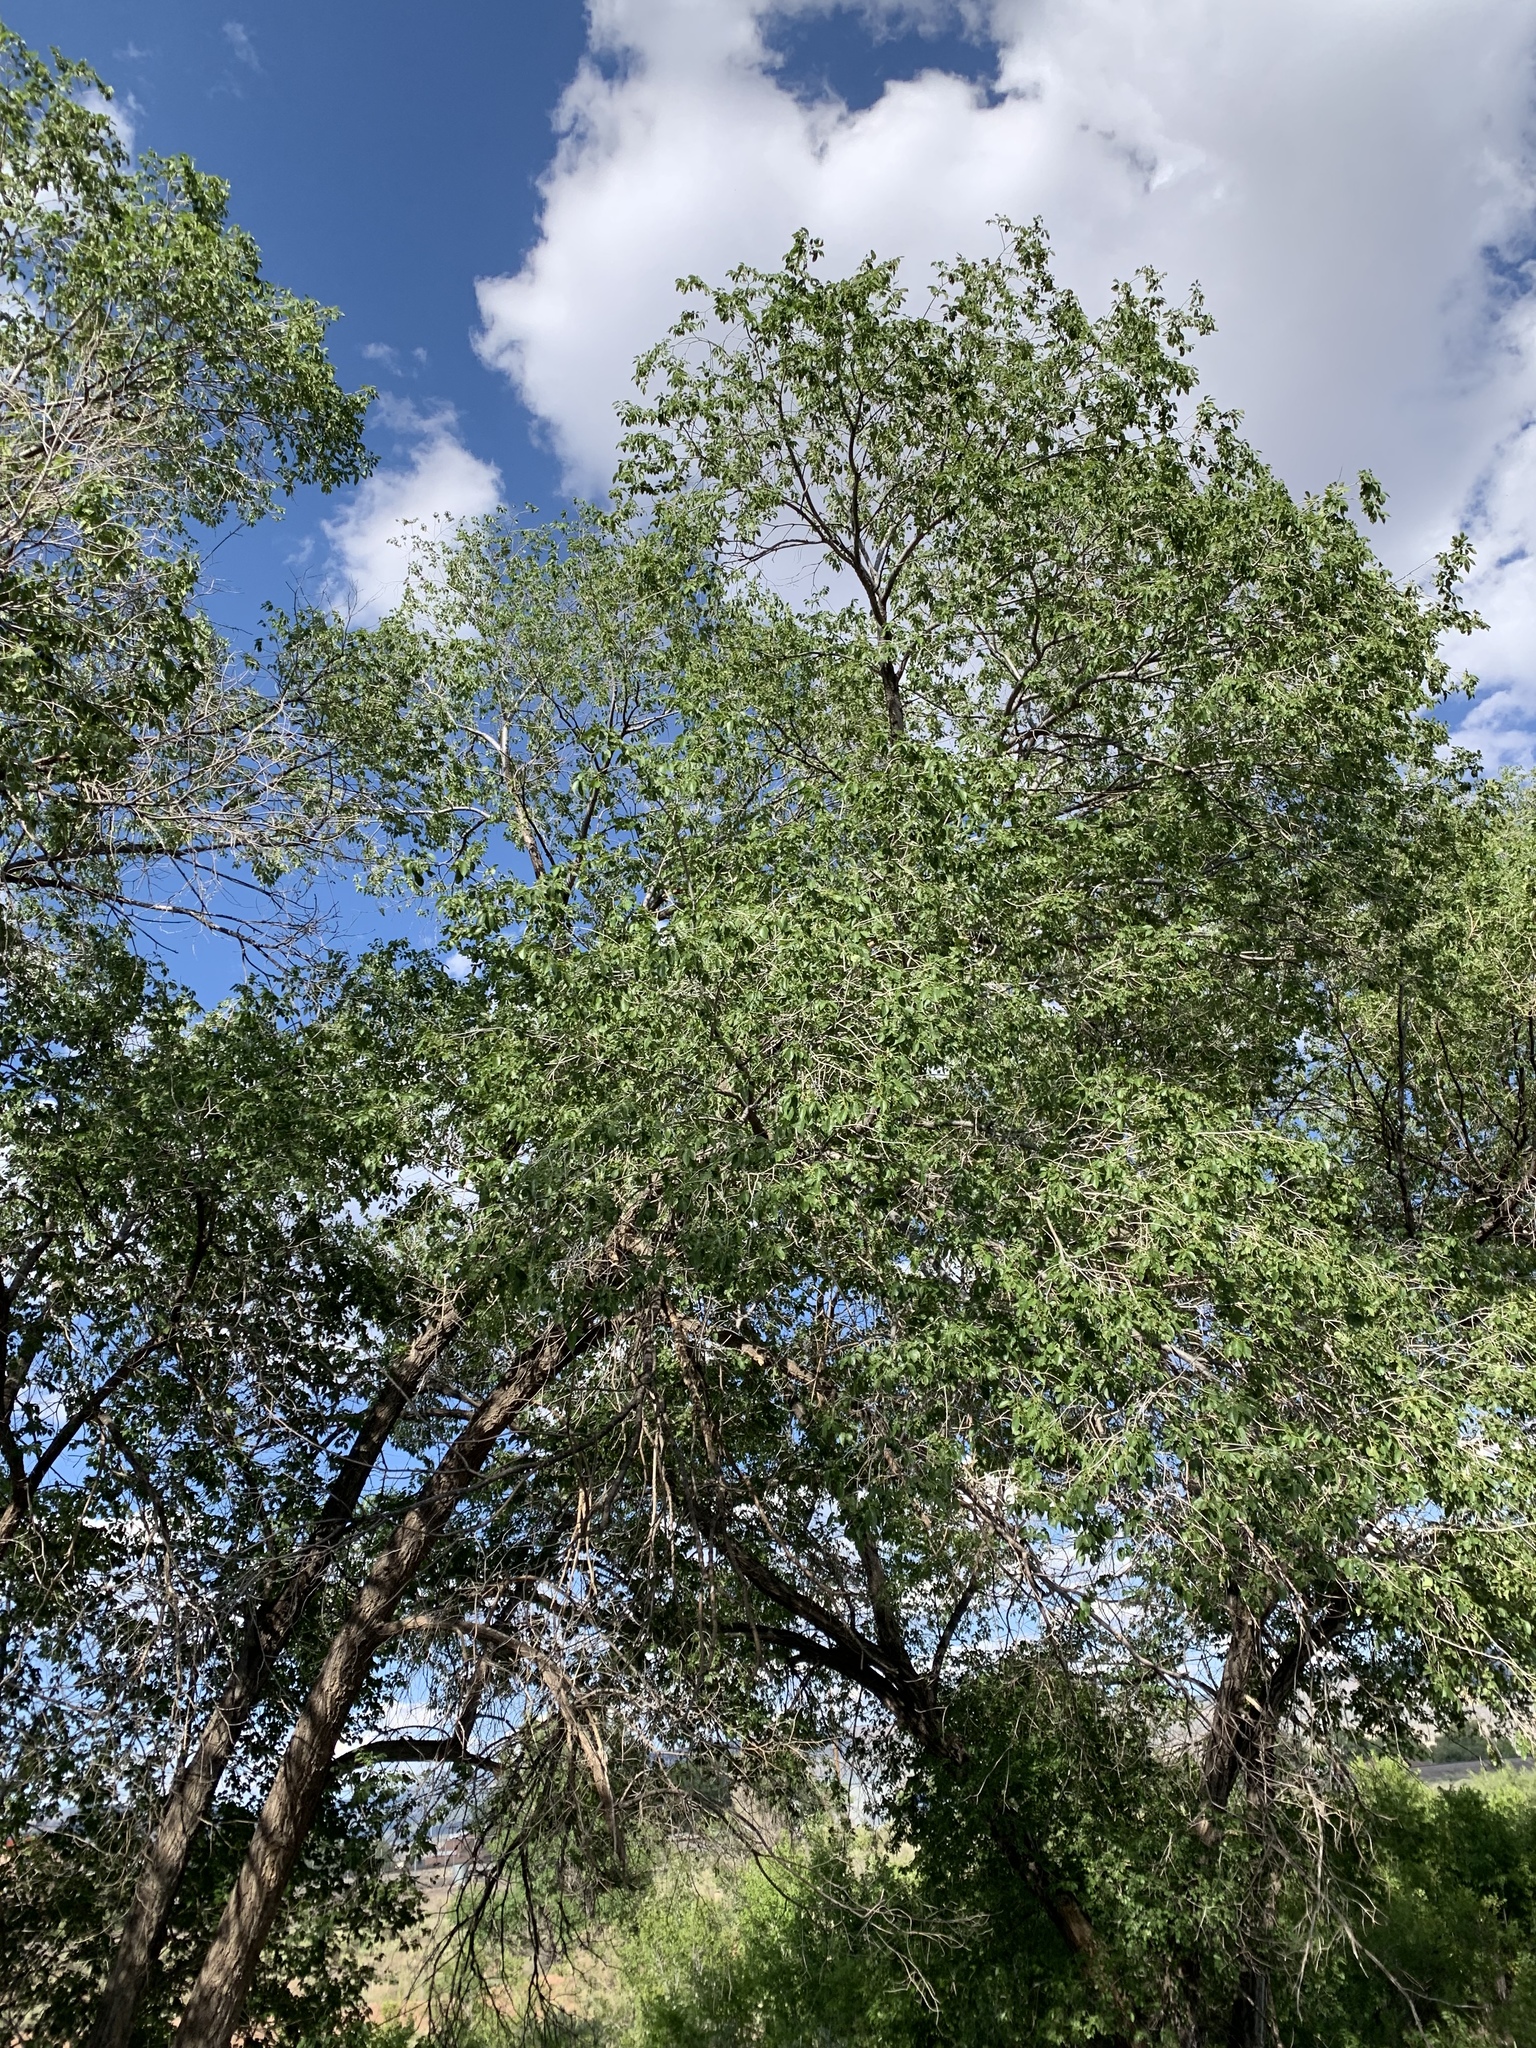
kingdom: Plantae
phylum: Tracheophyta
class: Magnoliopsida
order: Rosales
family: Ulmaceae
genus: Ulmus
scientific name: Ulmus pumila
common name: Siberian elm
